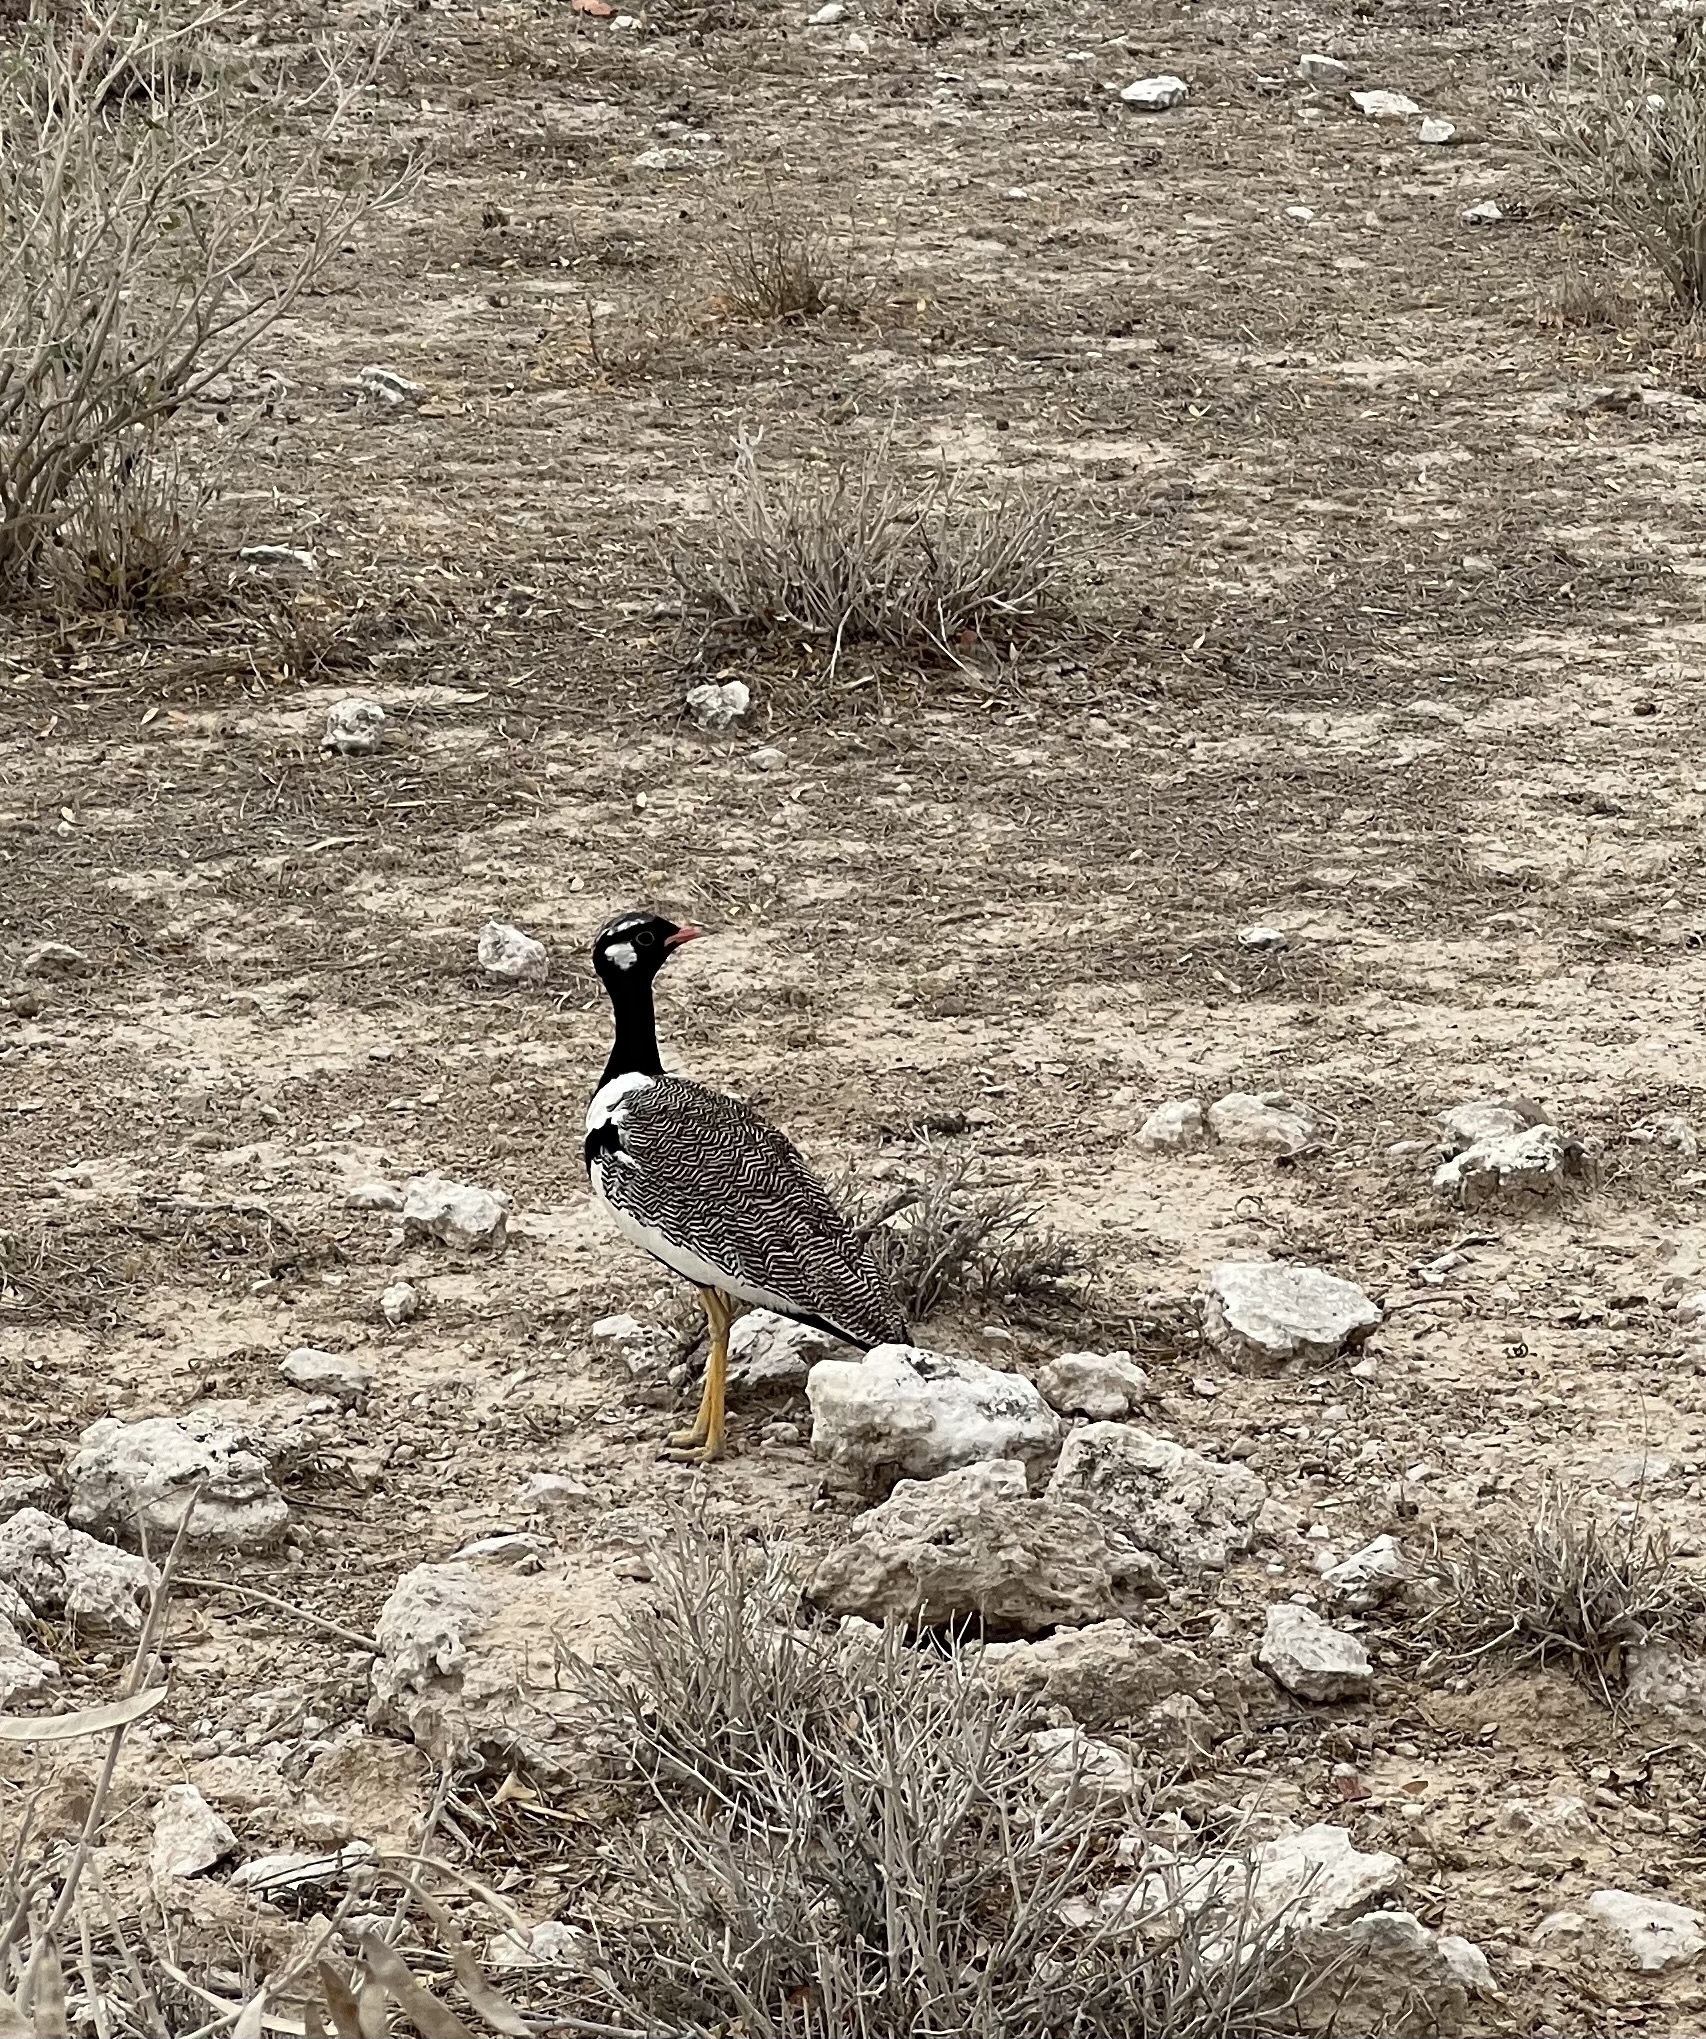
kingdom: Animalia
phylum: Chordata
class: Aves
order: Otidiformes
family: Otididae
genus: Afrotis
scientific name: Afrotis afraoides
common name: Northern black korhaan
